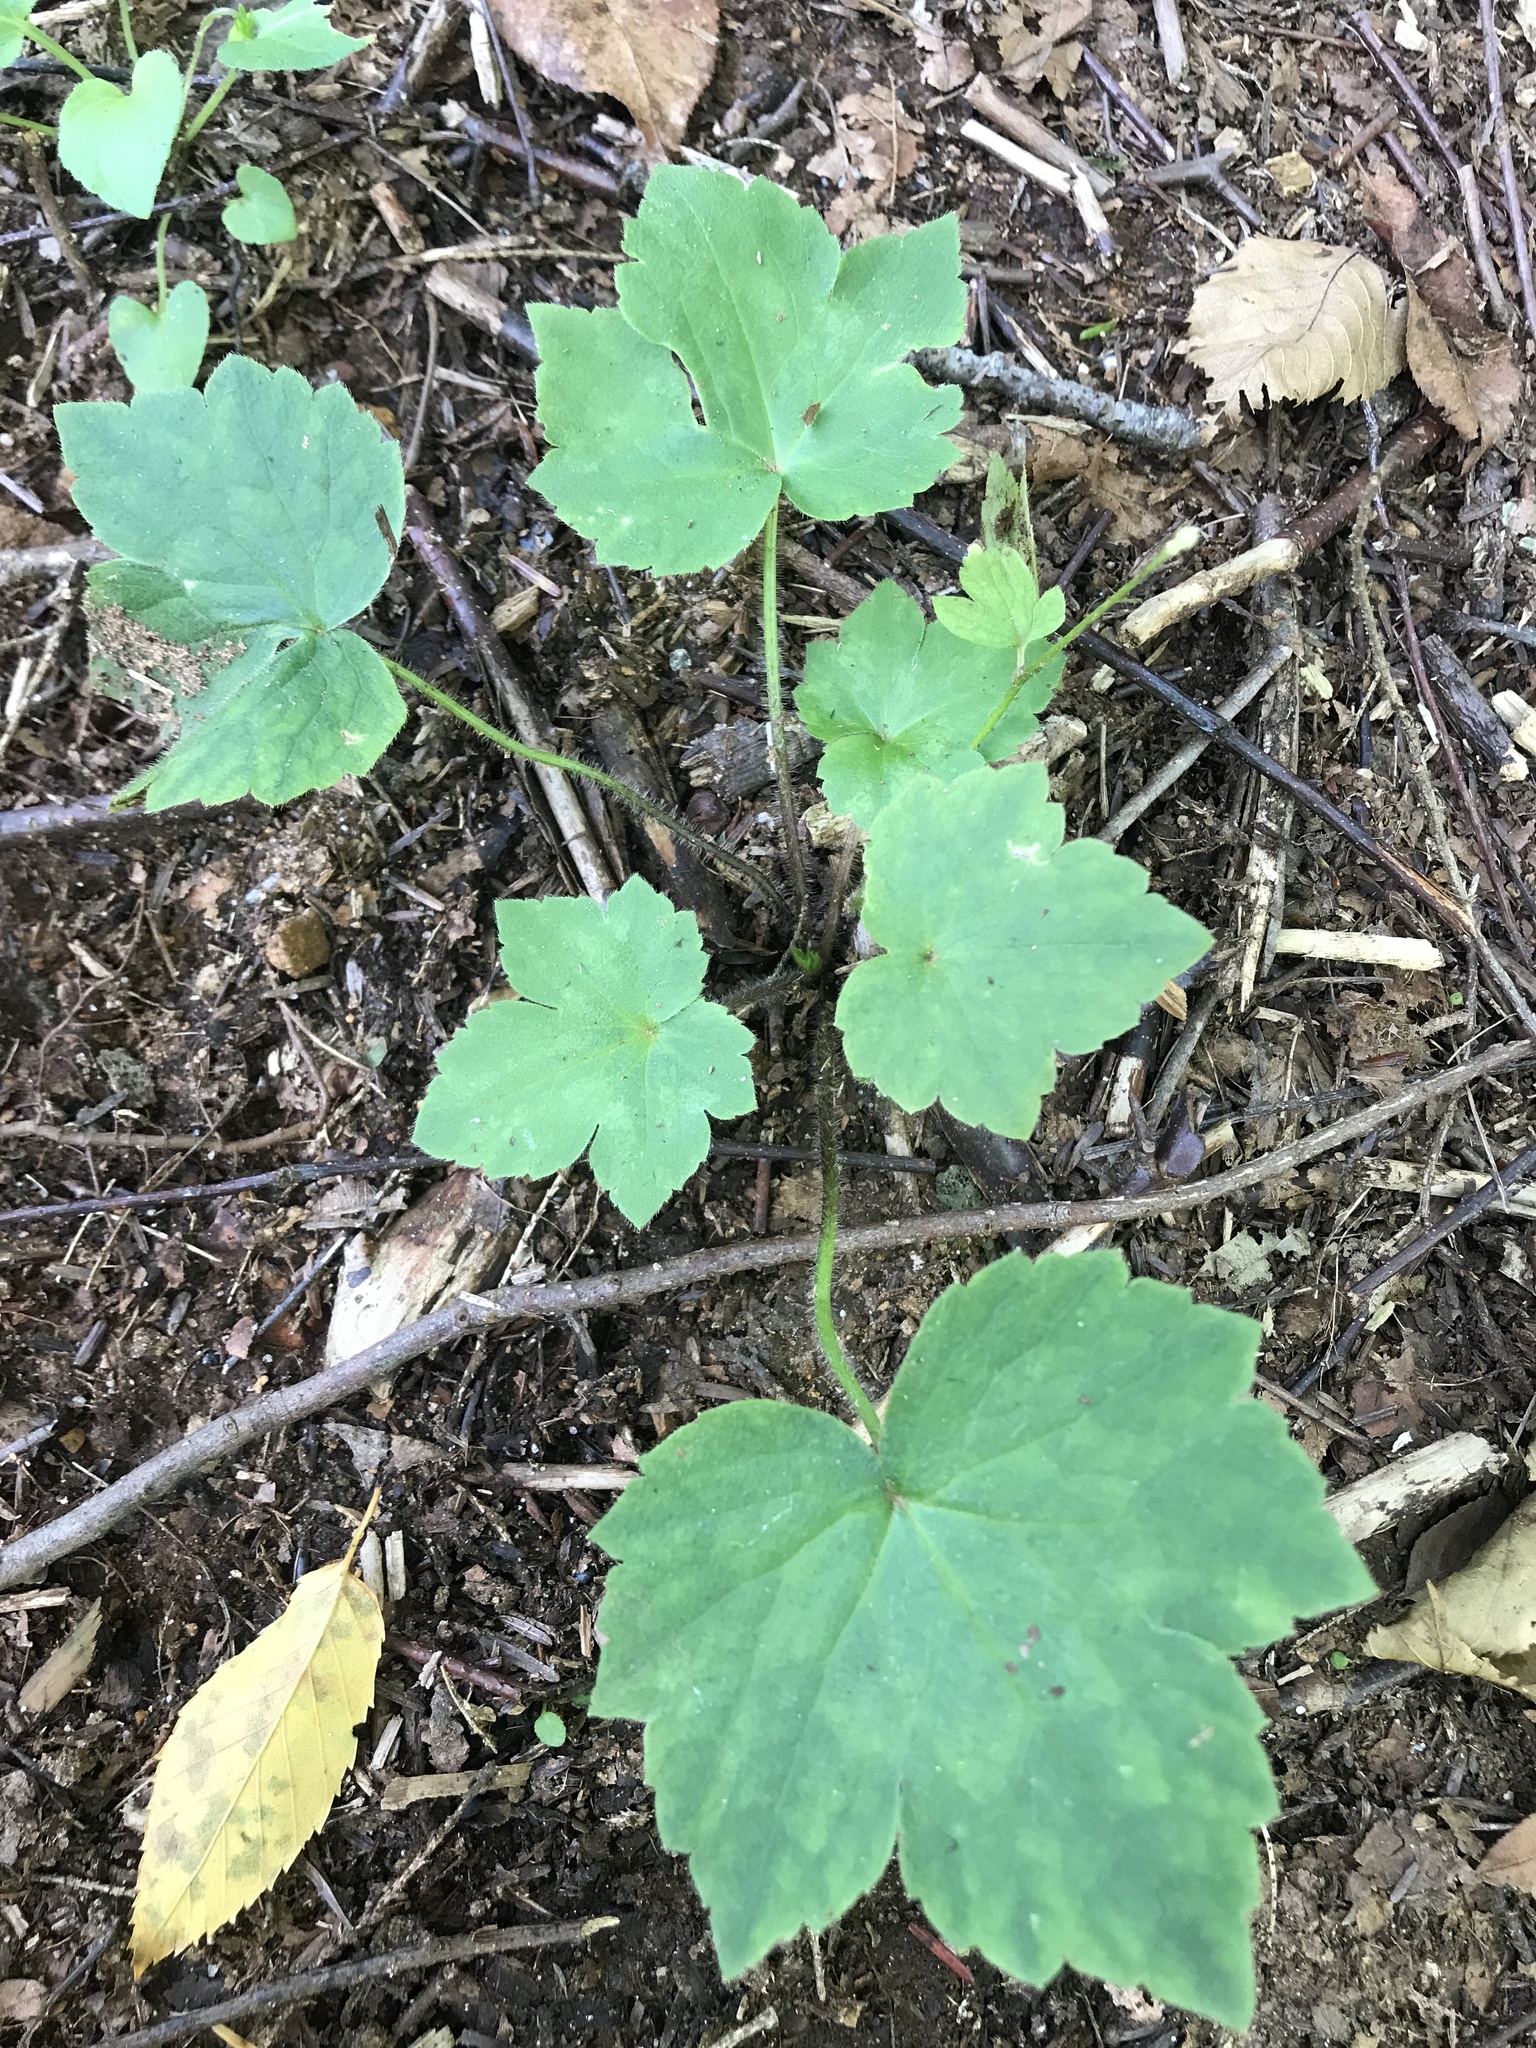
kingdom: Plantae
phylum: Tracheophyta
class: Magnoliopsida
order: Ranunculales
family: Ranunculaceae
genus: Ranunculus
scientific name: Ranunculus recurvatus
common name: Blisterwort
